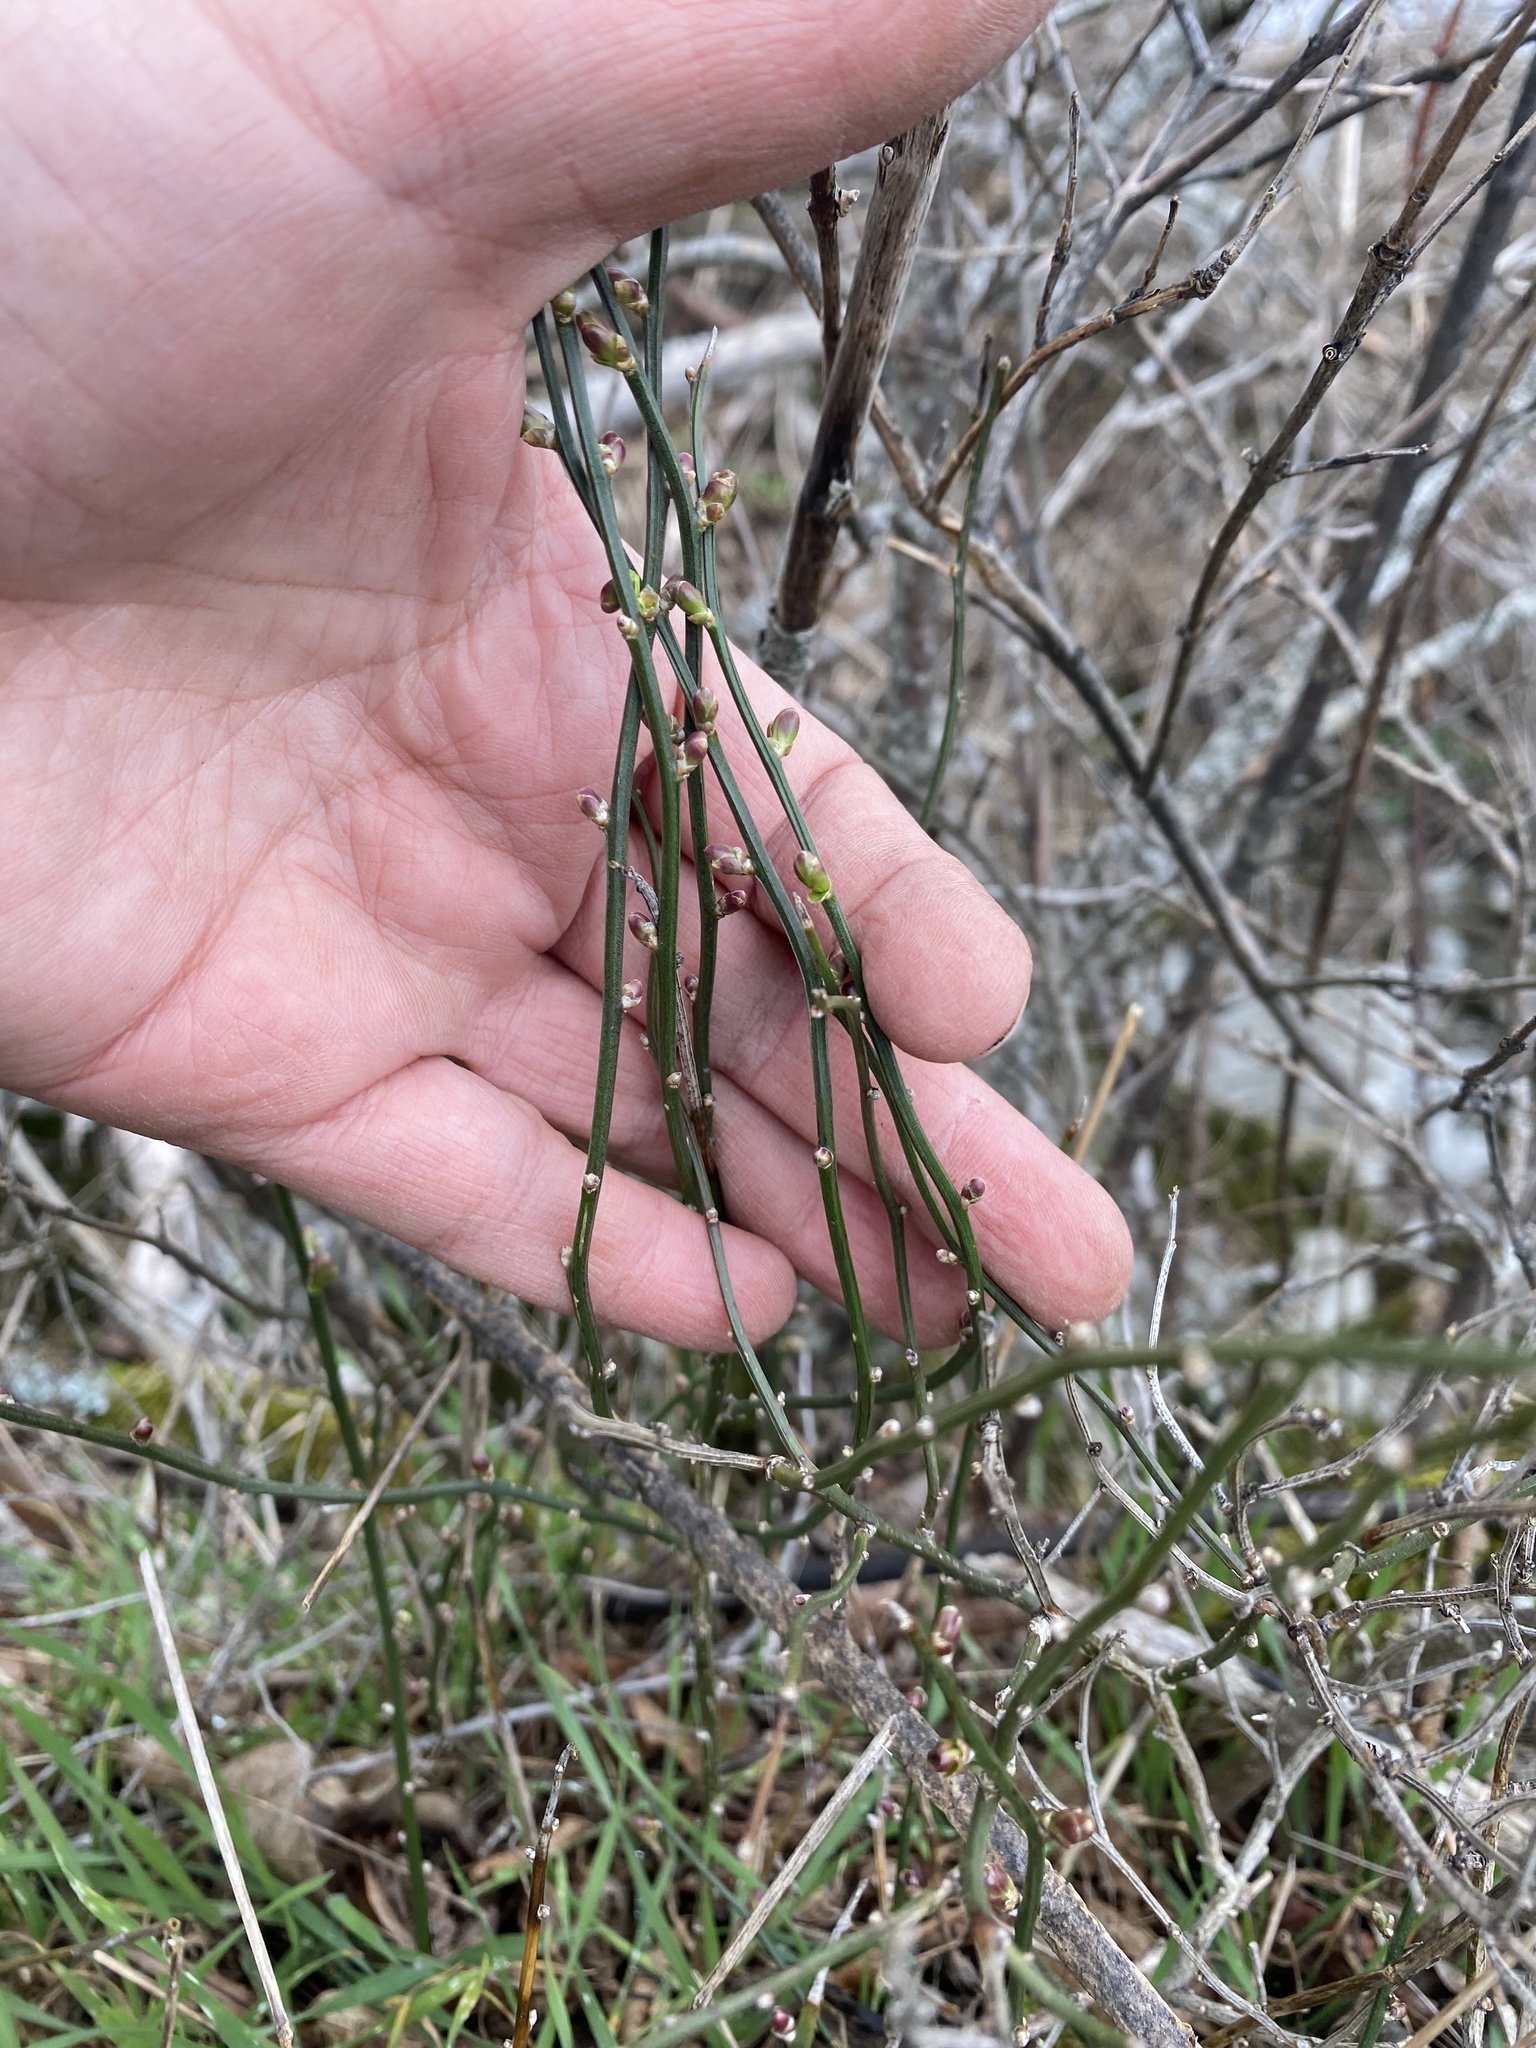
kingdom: Plantae
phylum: Tracheophyta
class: Magnoliopsida
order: Lamiales
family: Oleaceae
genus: Chrysojasminum
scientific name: Chrysojasminum fruticans
